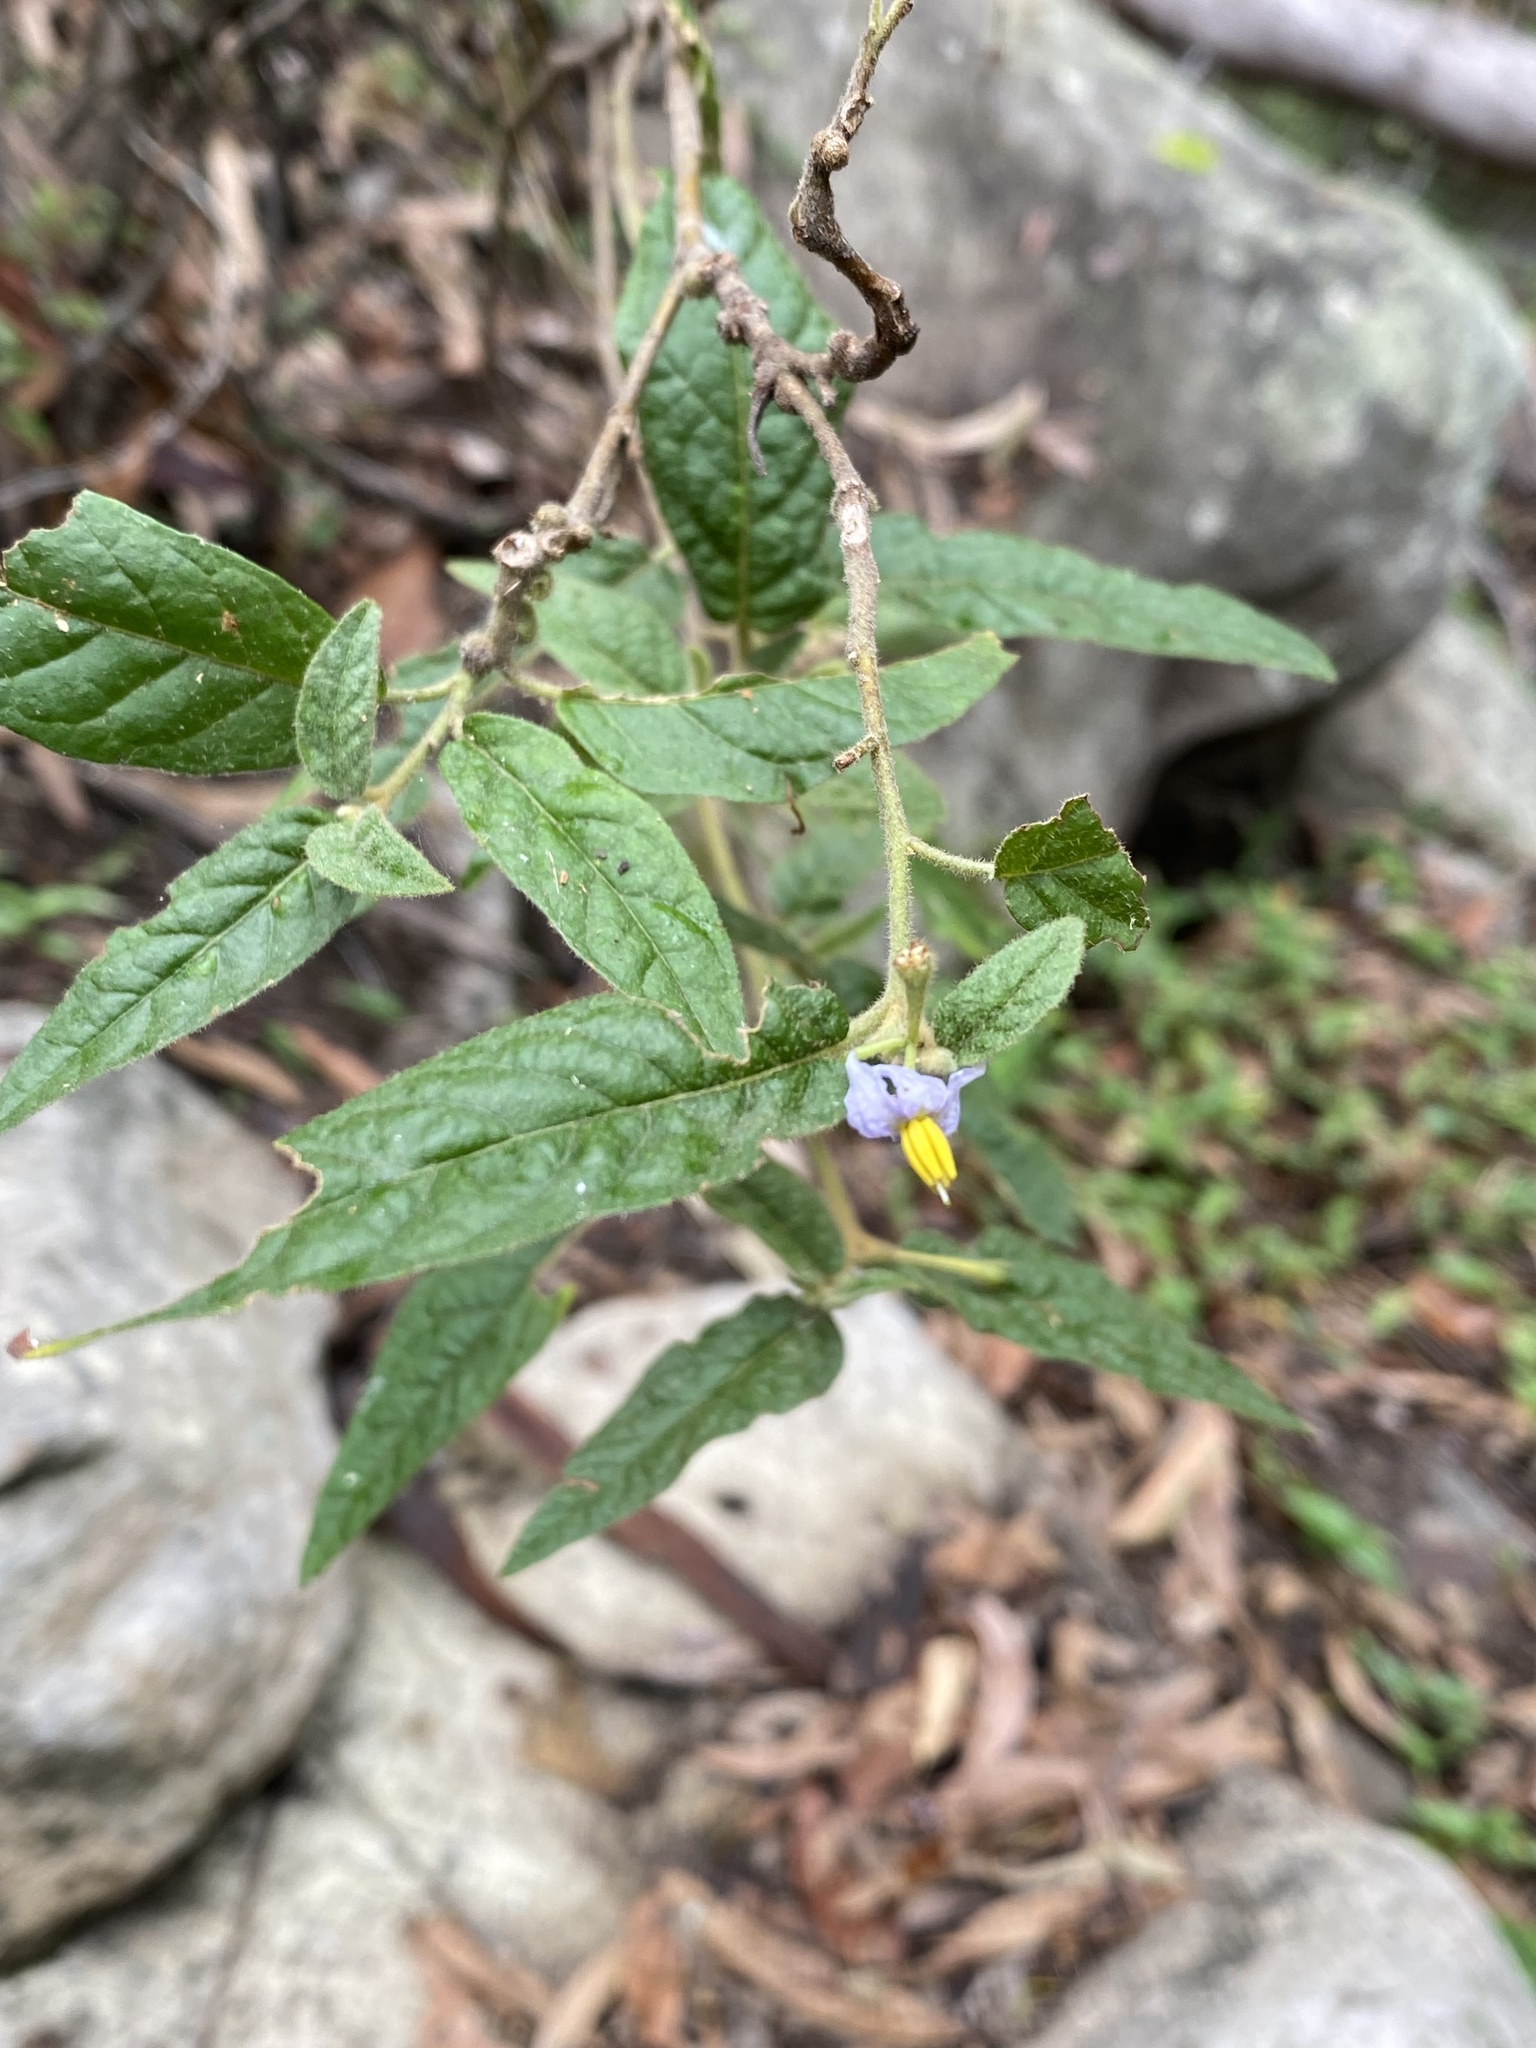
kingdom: Plantae
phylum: Tracheophyta
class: Magnoliopsida
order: Solanales
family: Solanaceae
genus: Solanum
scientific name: Solanum stelligerum
